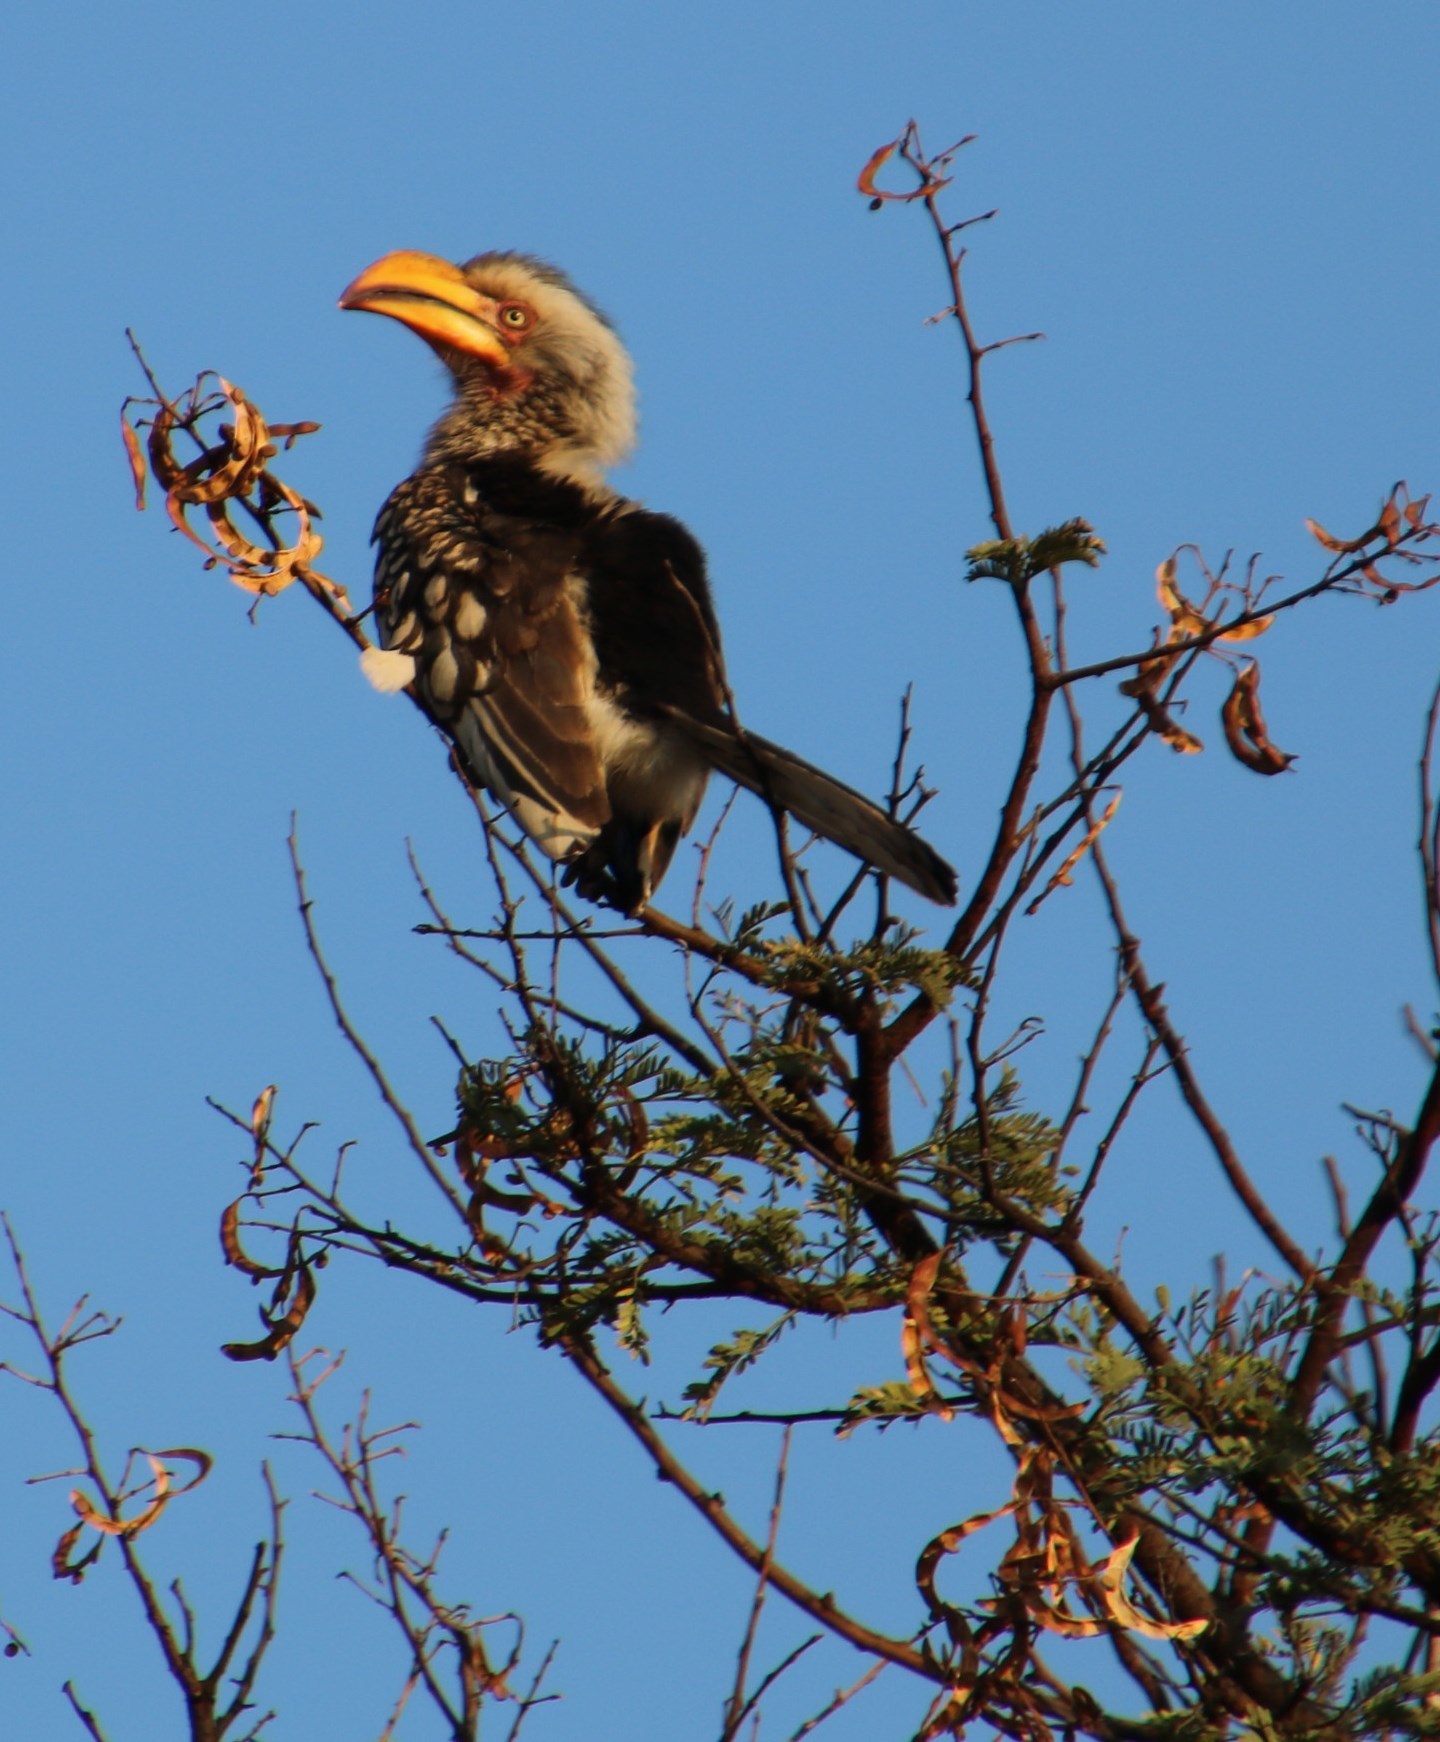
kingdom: Animalia
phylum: Chordata
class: Aves
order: Bucerotiformes
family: Bucerotidae
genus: Tockus
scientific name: Tockus leucomelas
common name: Southern yellow-billed hornbill
